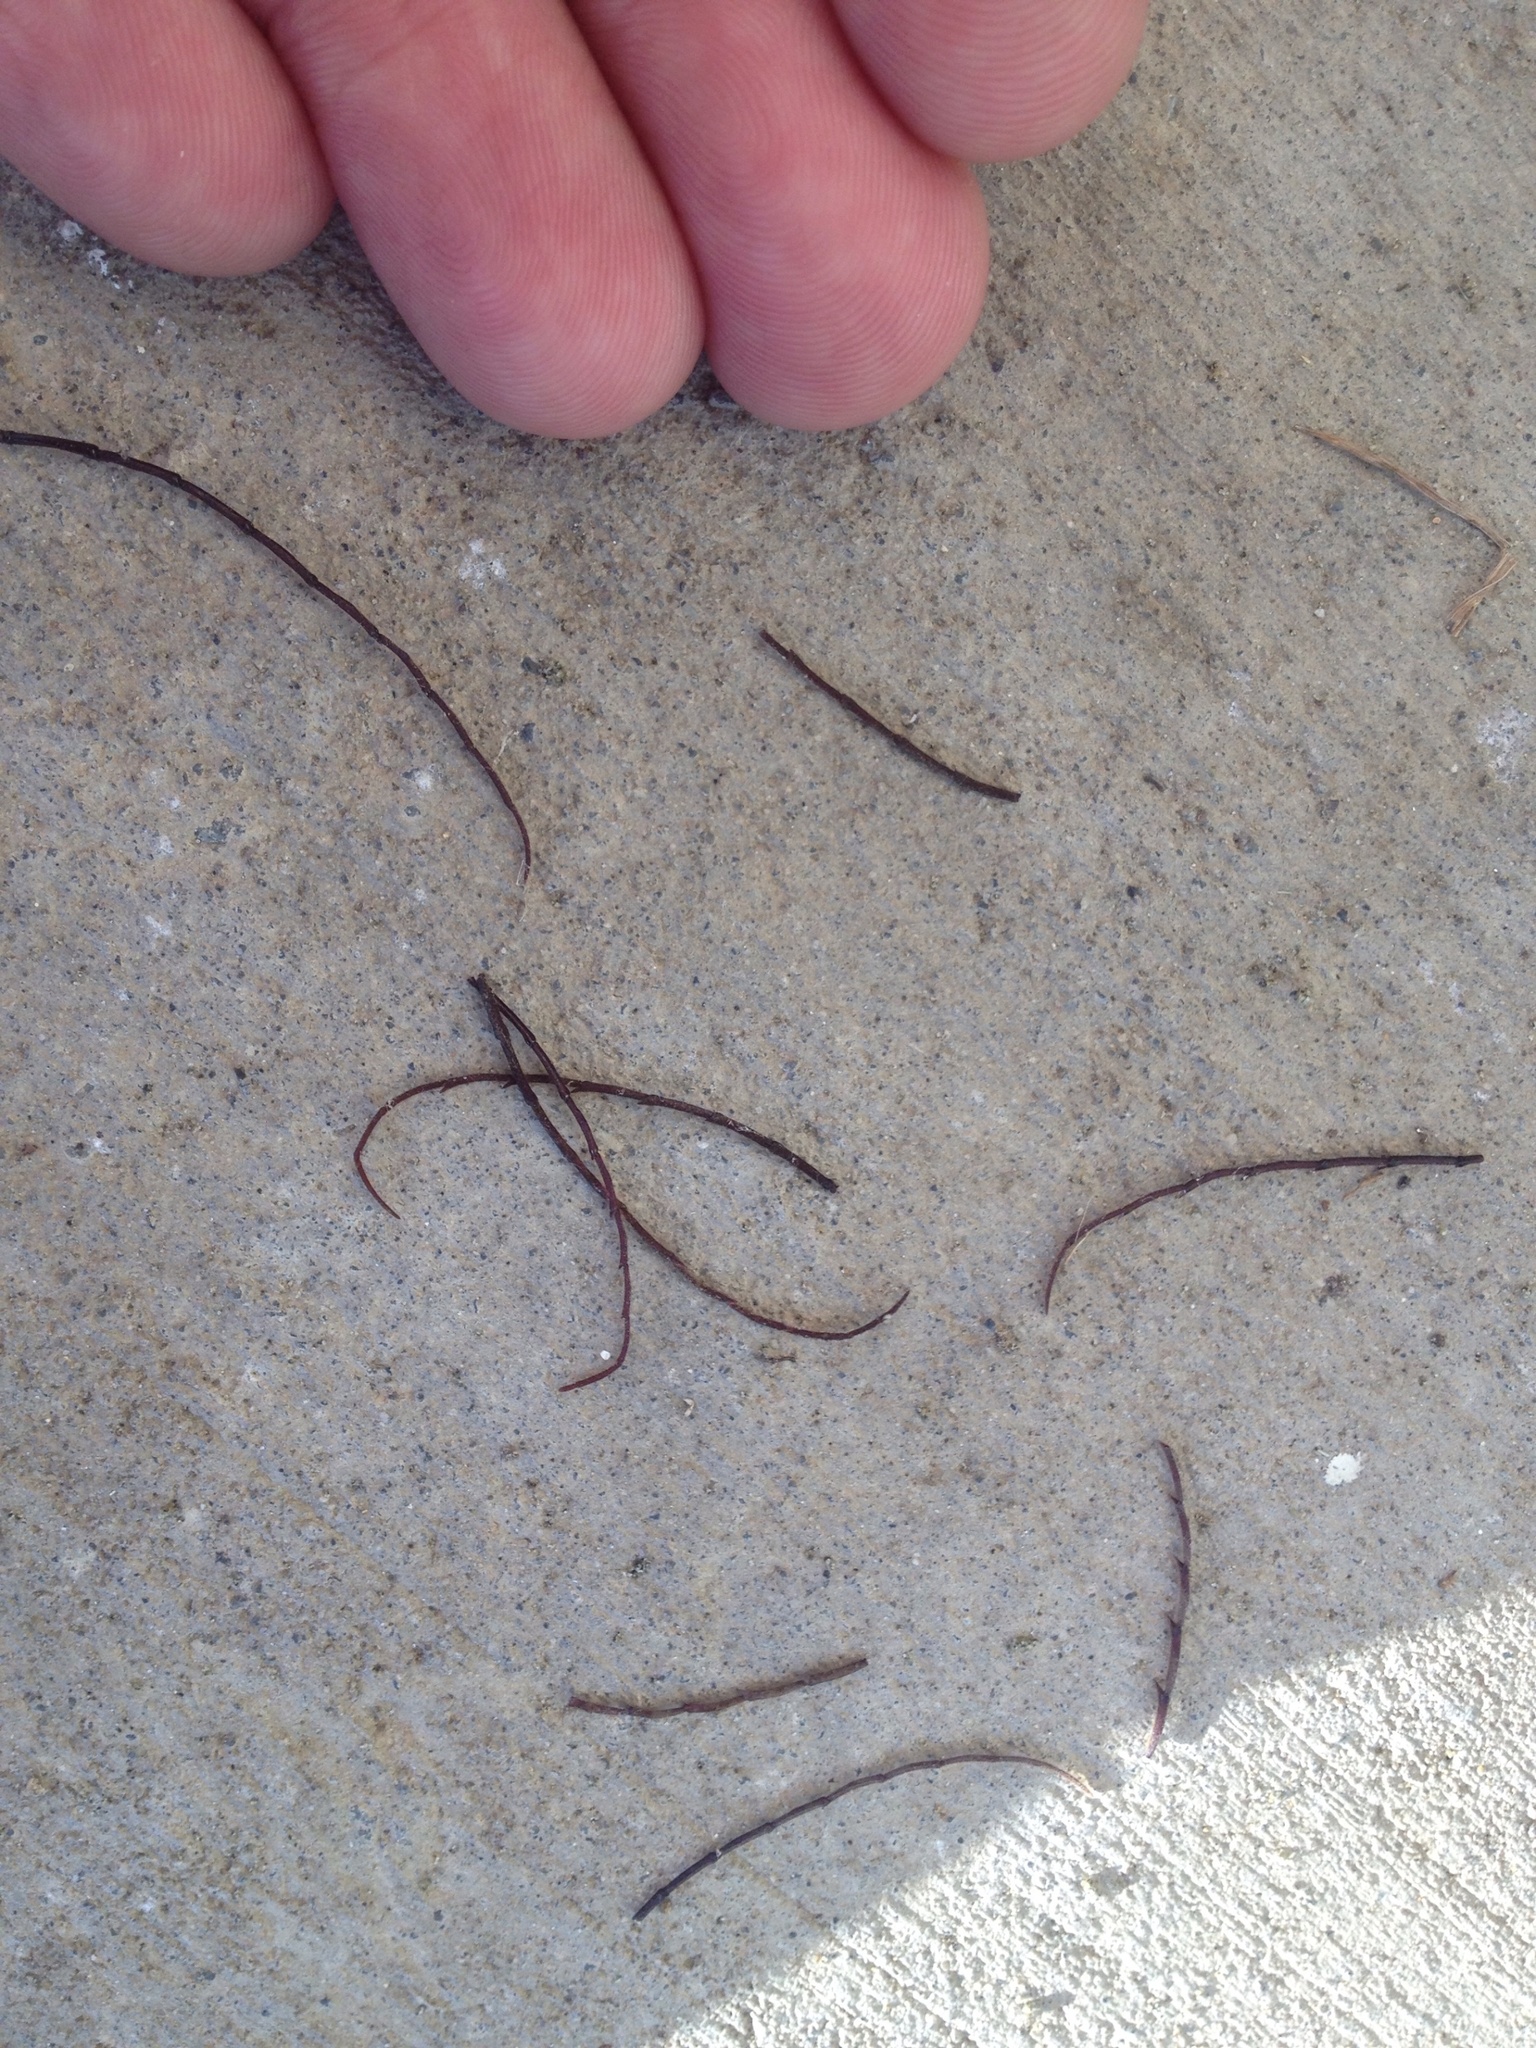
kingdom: Animalia
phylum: Arthropoda
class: Insecta
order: Coleoptera
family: Cerambycidae
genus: Prionoplus
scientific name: Prionoplus reticularis
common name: Huhu beetle
